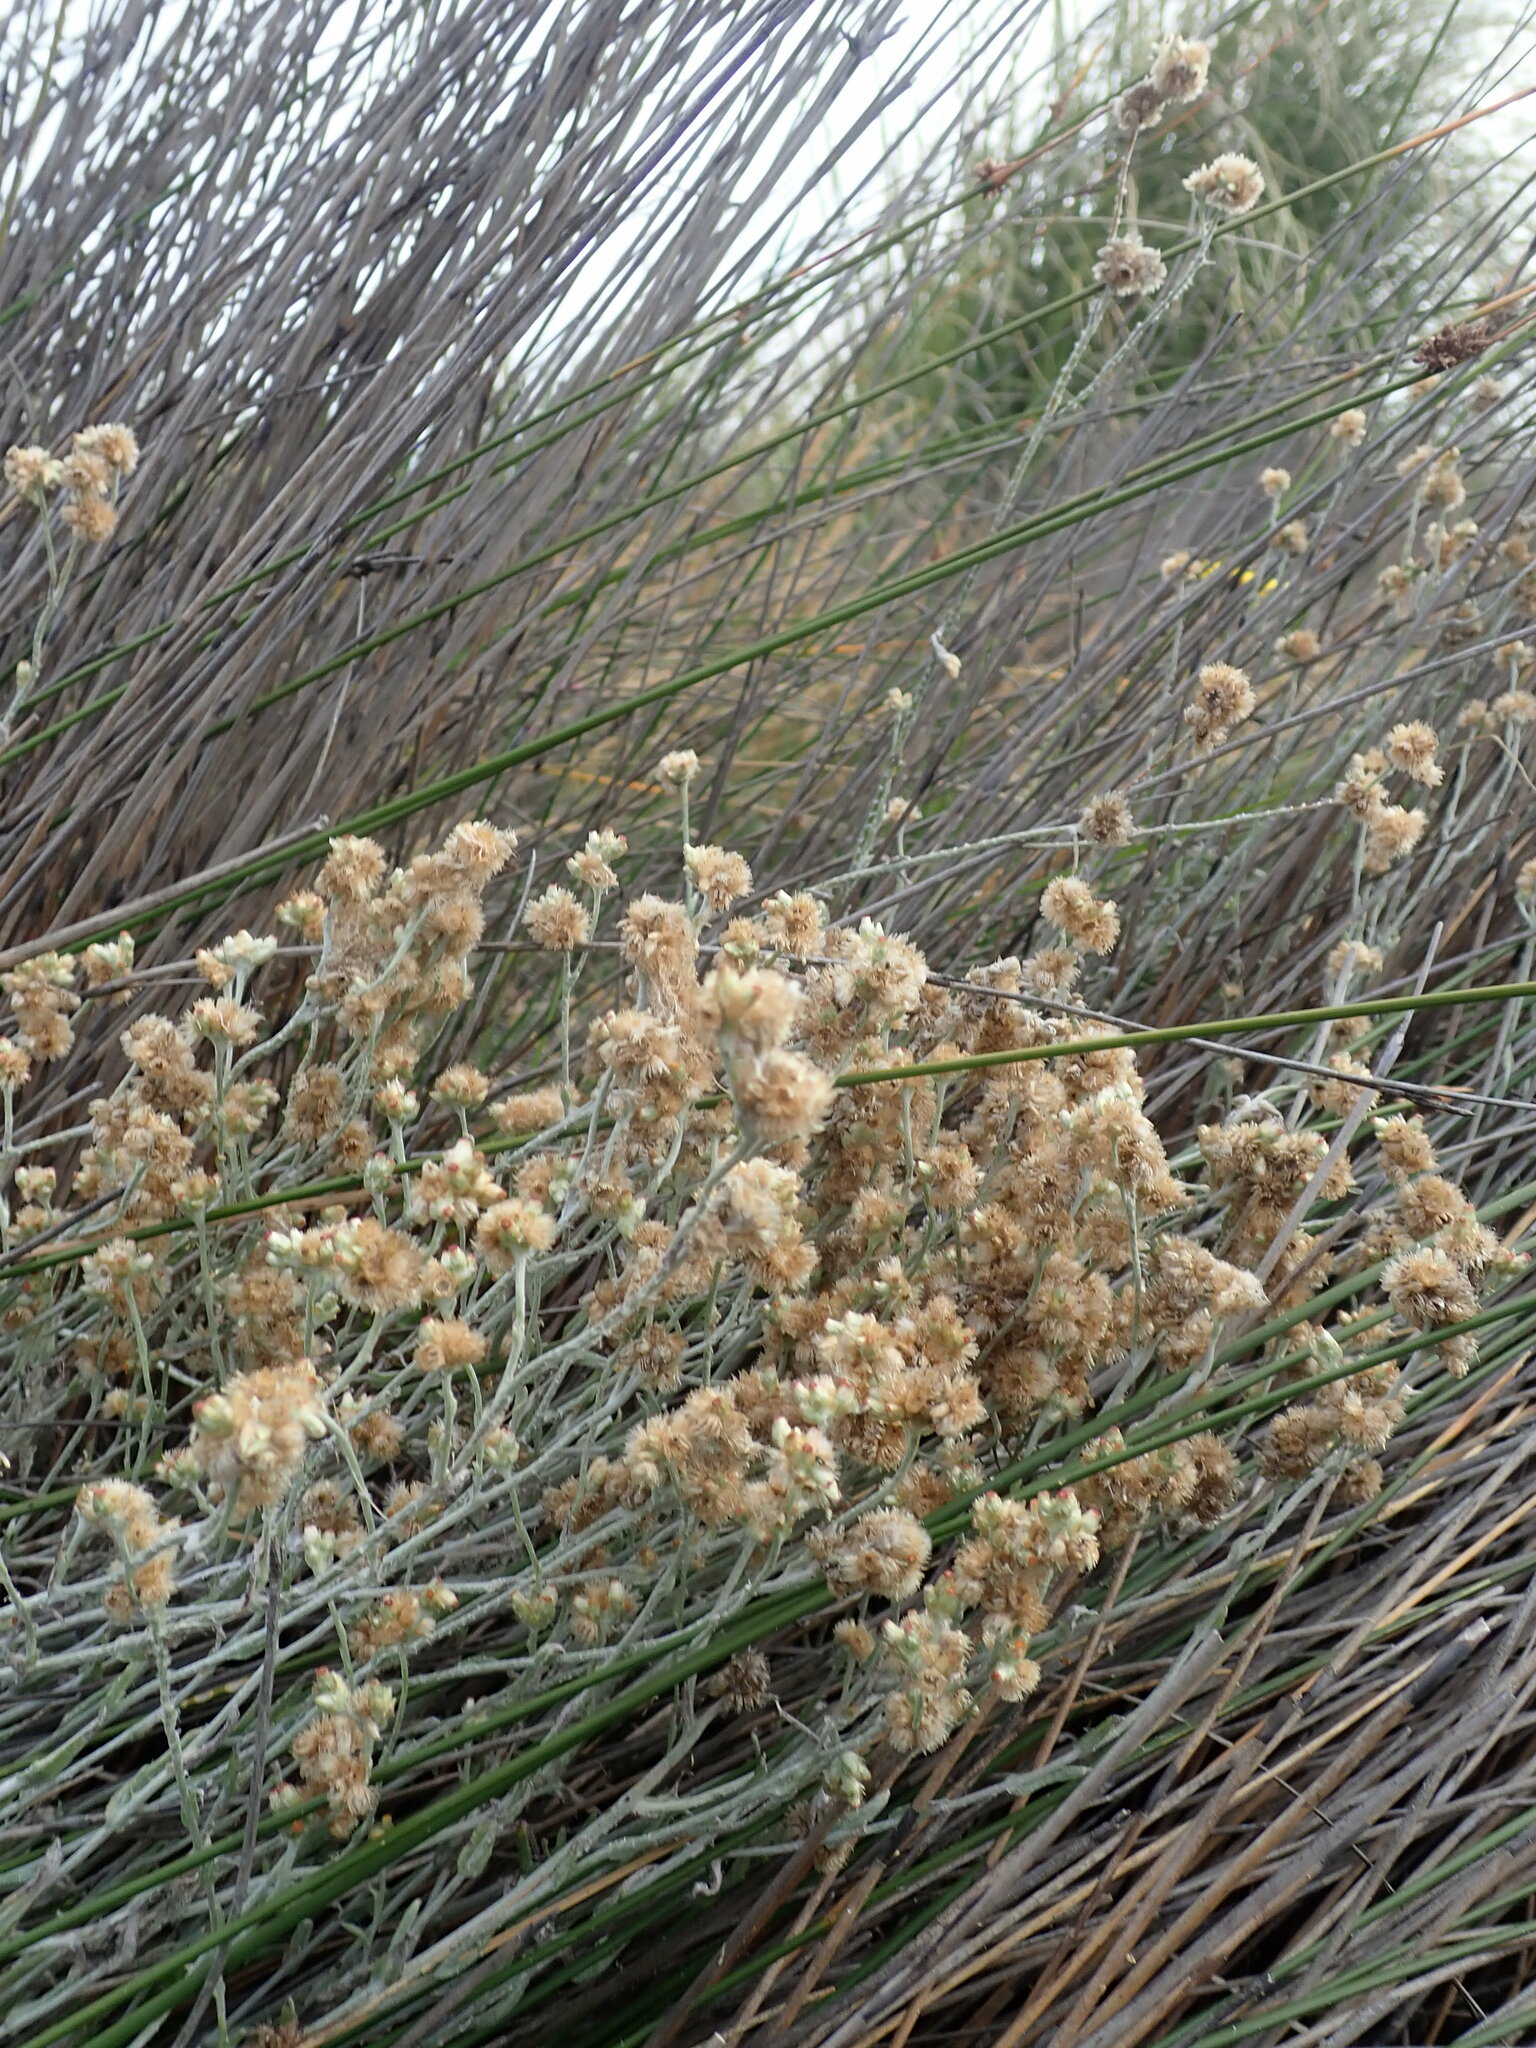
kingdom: Plantae
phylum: Tracheophyta
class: Magnoliopsida
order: Asterales
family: Asteraceae
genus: Helichrysum
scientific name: Helichrysum luteoalbum
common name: Daisy
